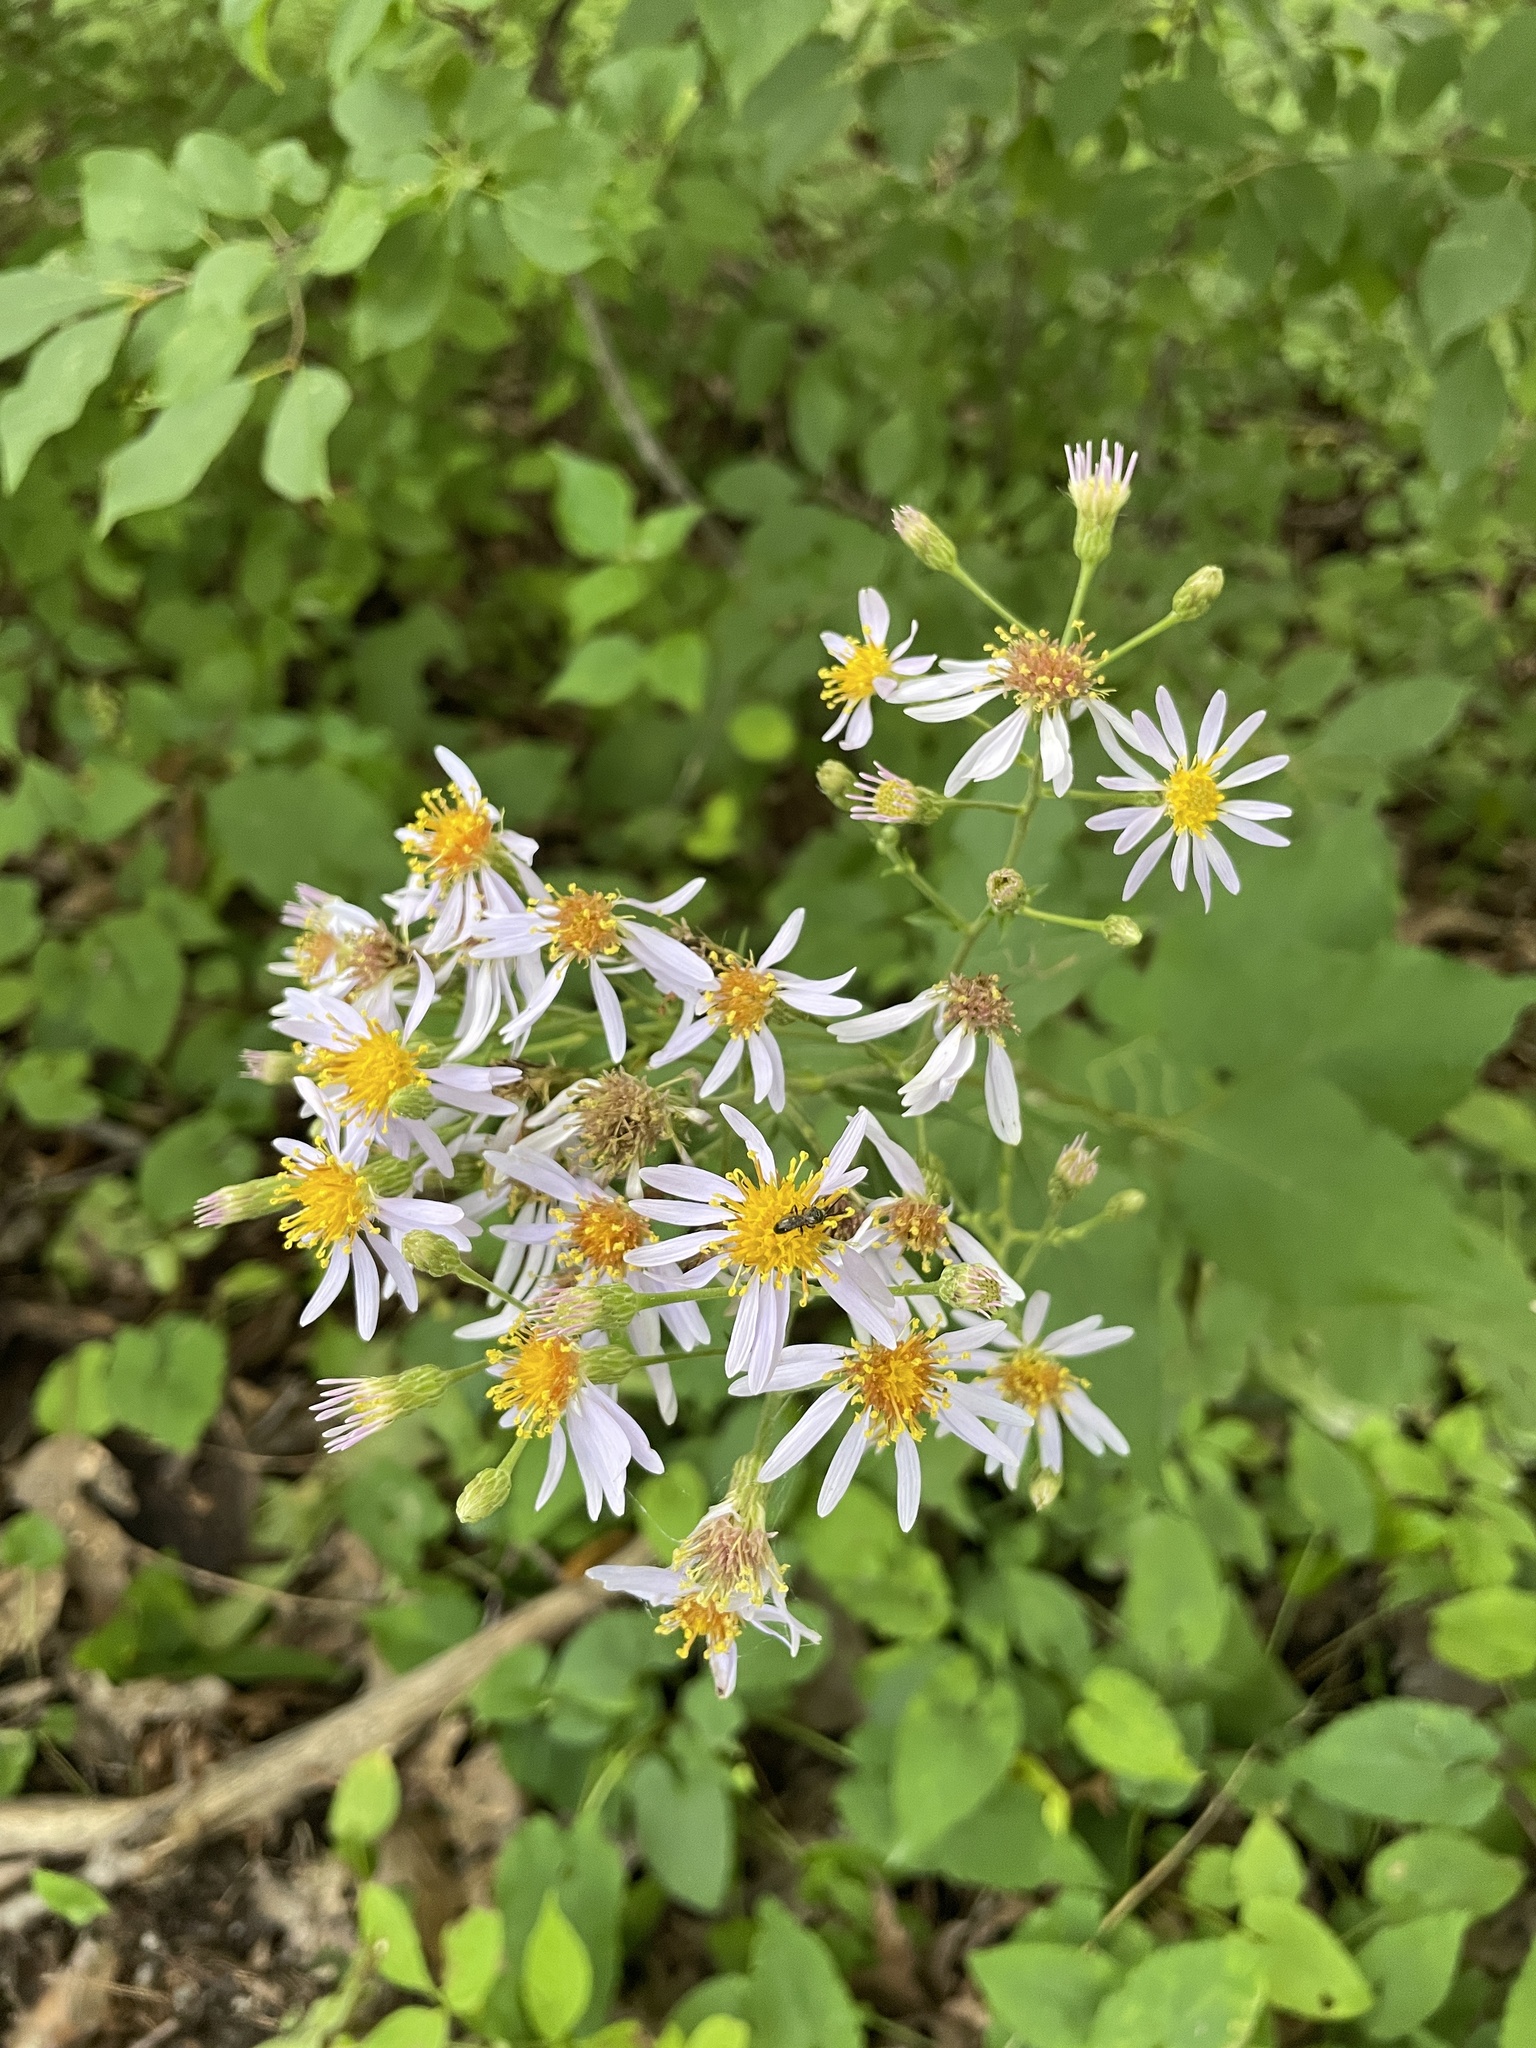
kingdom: Plantae
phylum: Tracheophyta
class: Magnoliopsida
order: Asterales
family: Asteraceae
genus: Eurybia
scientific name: Eurybia macrophylla
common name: Big-leaved aster
